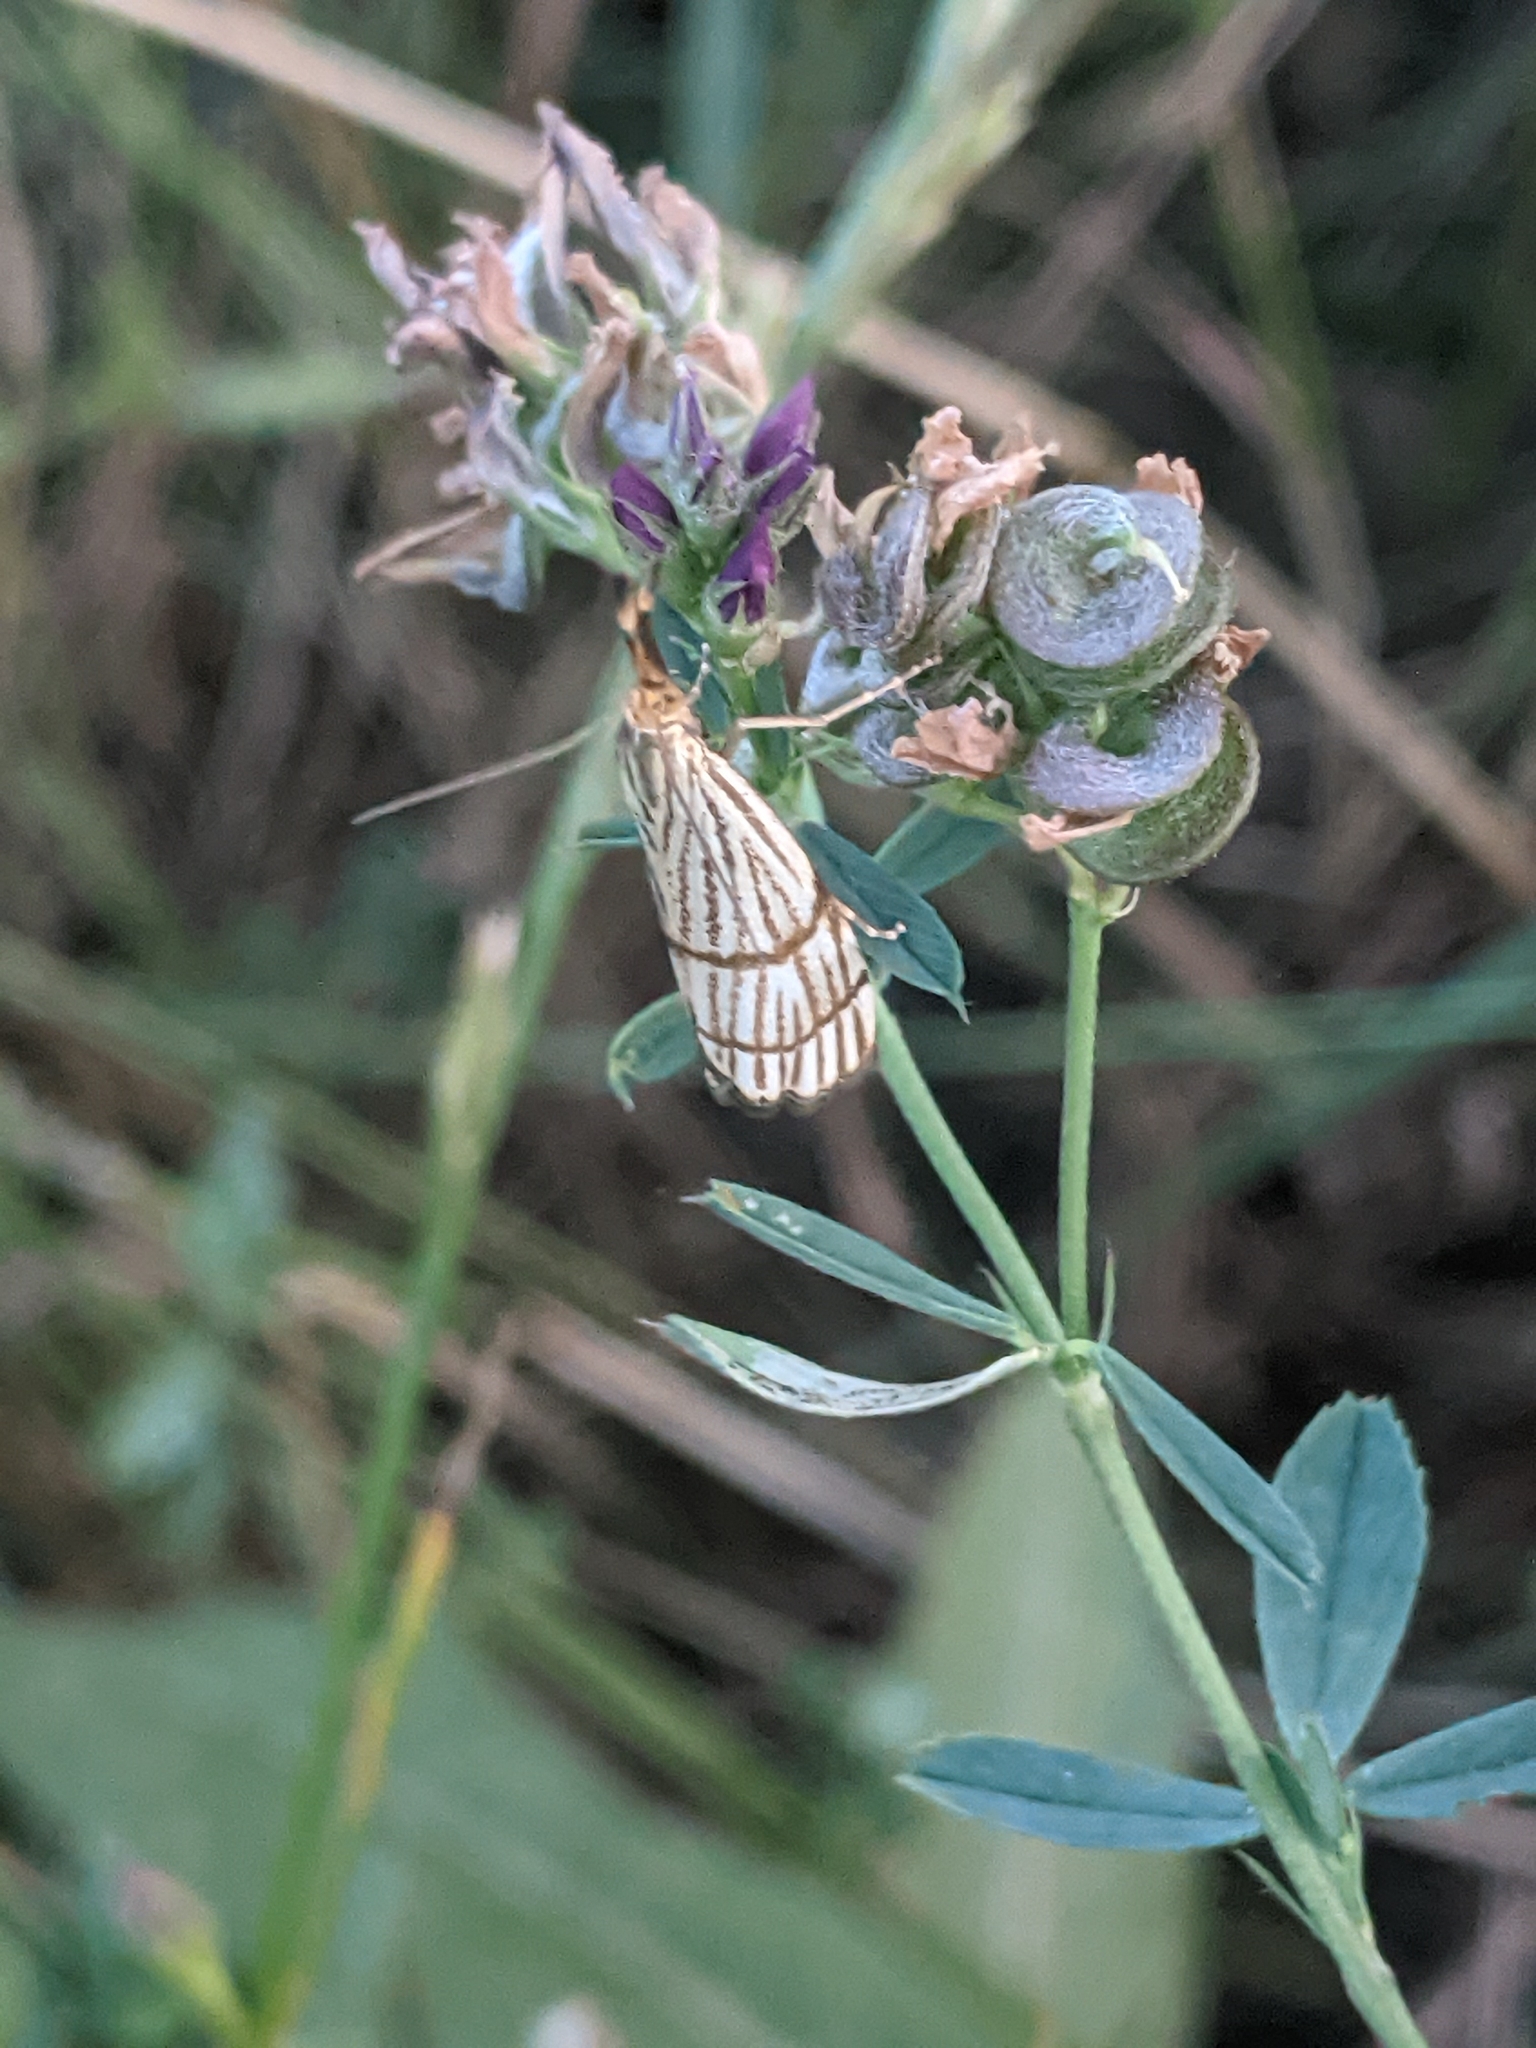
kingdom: Animalia
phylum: Arthropoda
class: Insecta
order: Lepidoptera
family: Crambidae
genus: Chrysocrambus
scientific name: Chrysocrambus linetella
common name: Orange-bar grass-veneer
